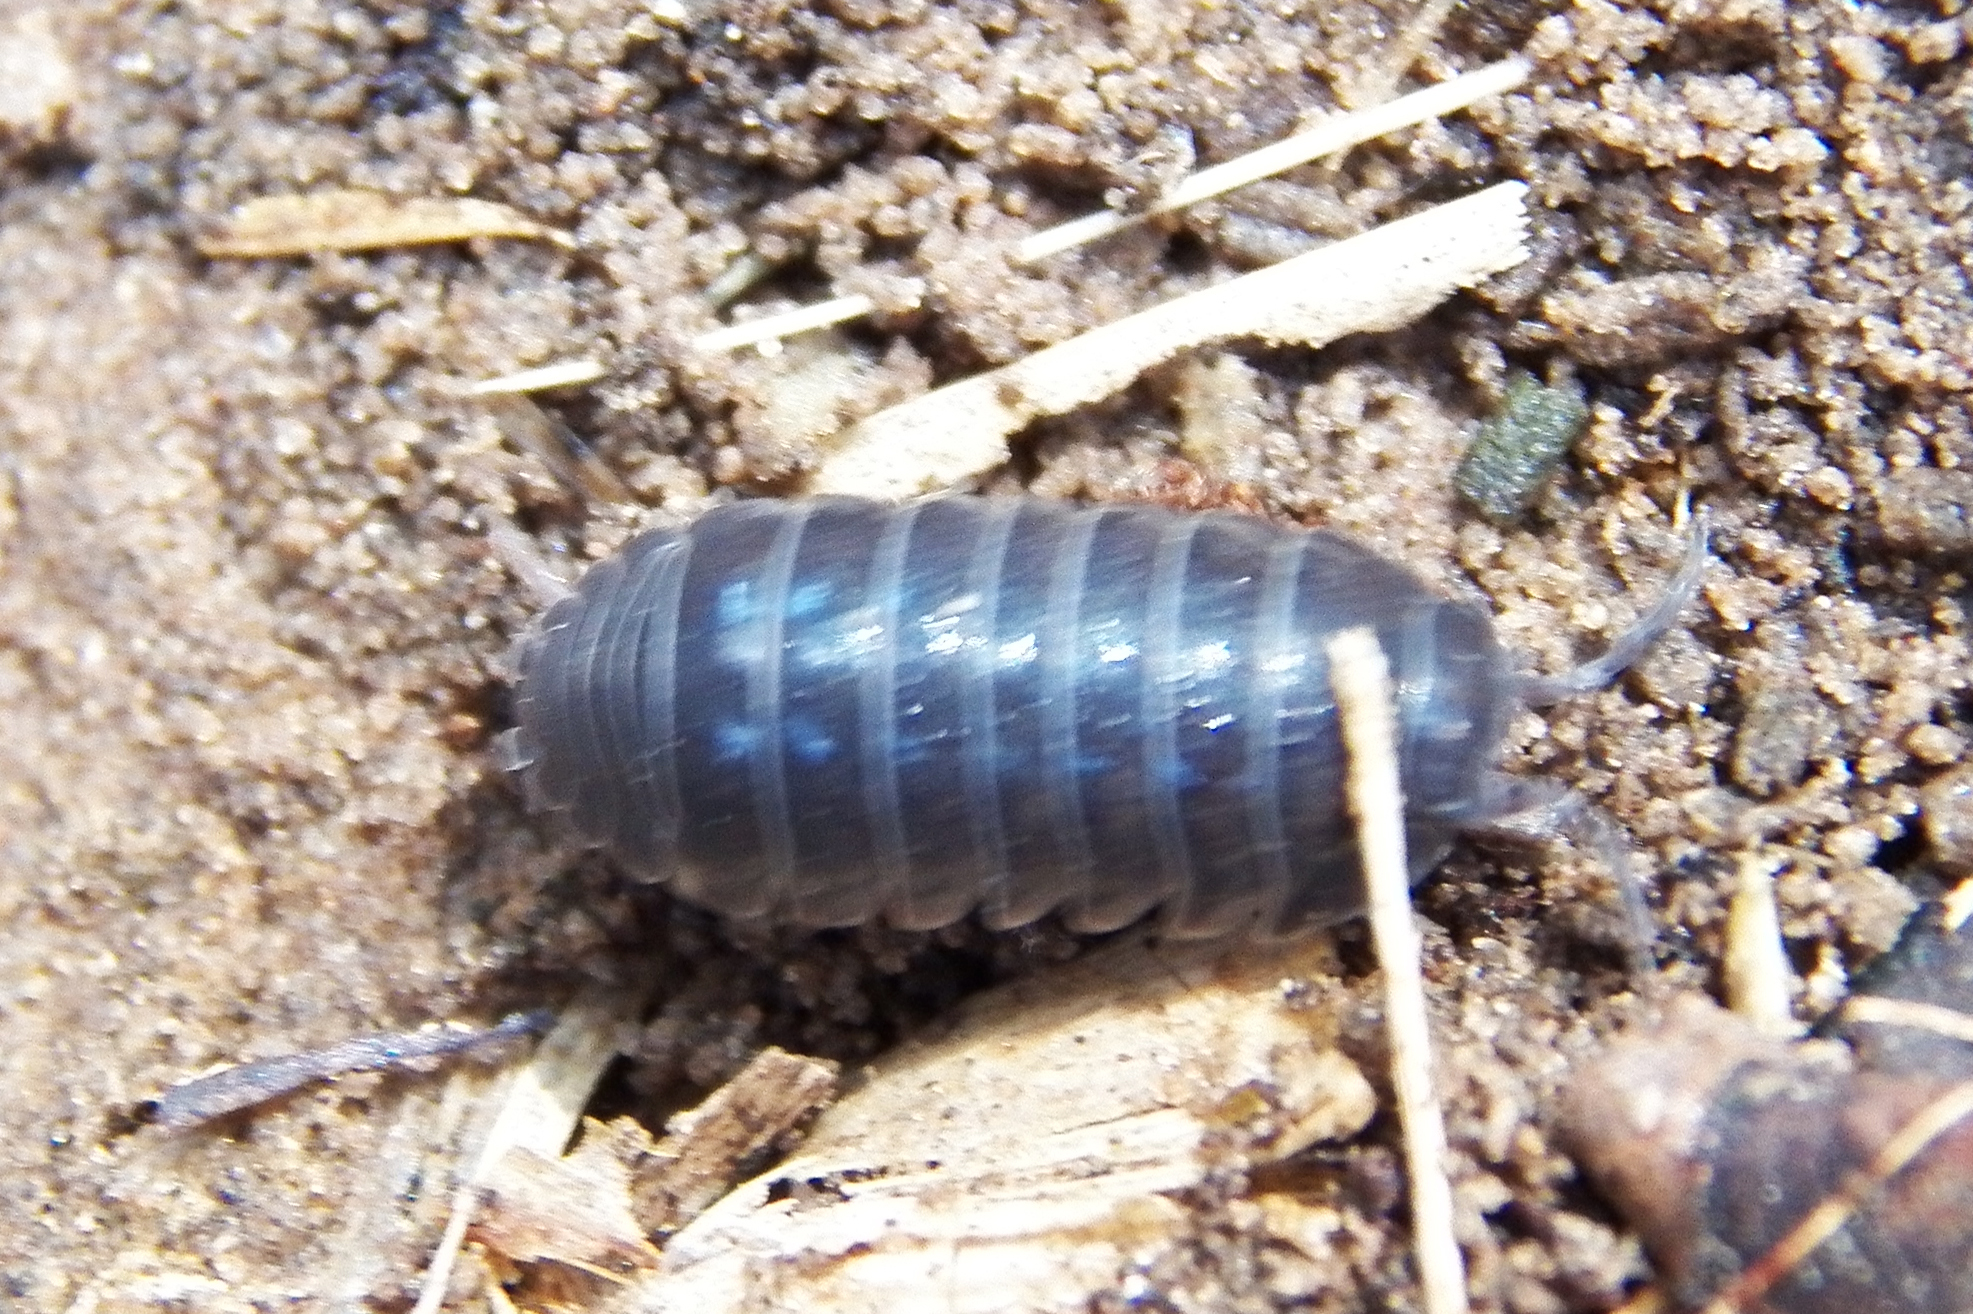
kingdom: Animalia
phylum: Arthropoda
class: Malacostraca
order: Isopoda
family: Armadillidiidae
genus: Armadillidium
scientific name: Armadillidium vulgare
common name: Common pill woodlouse
